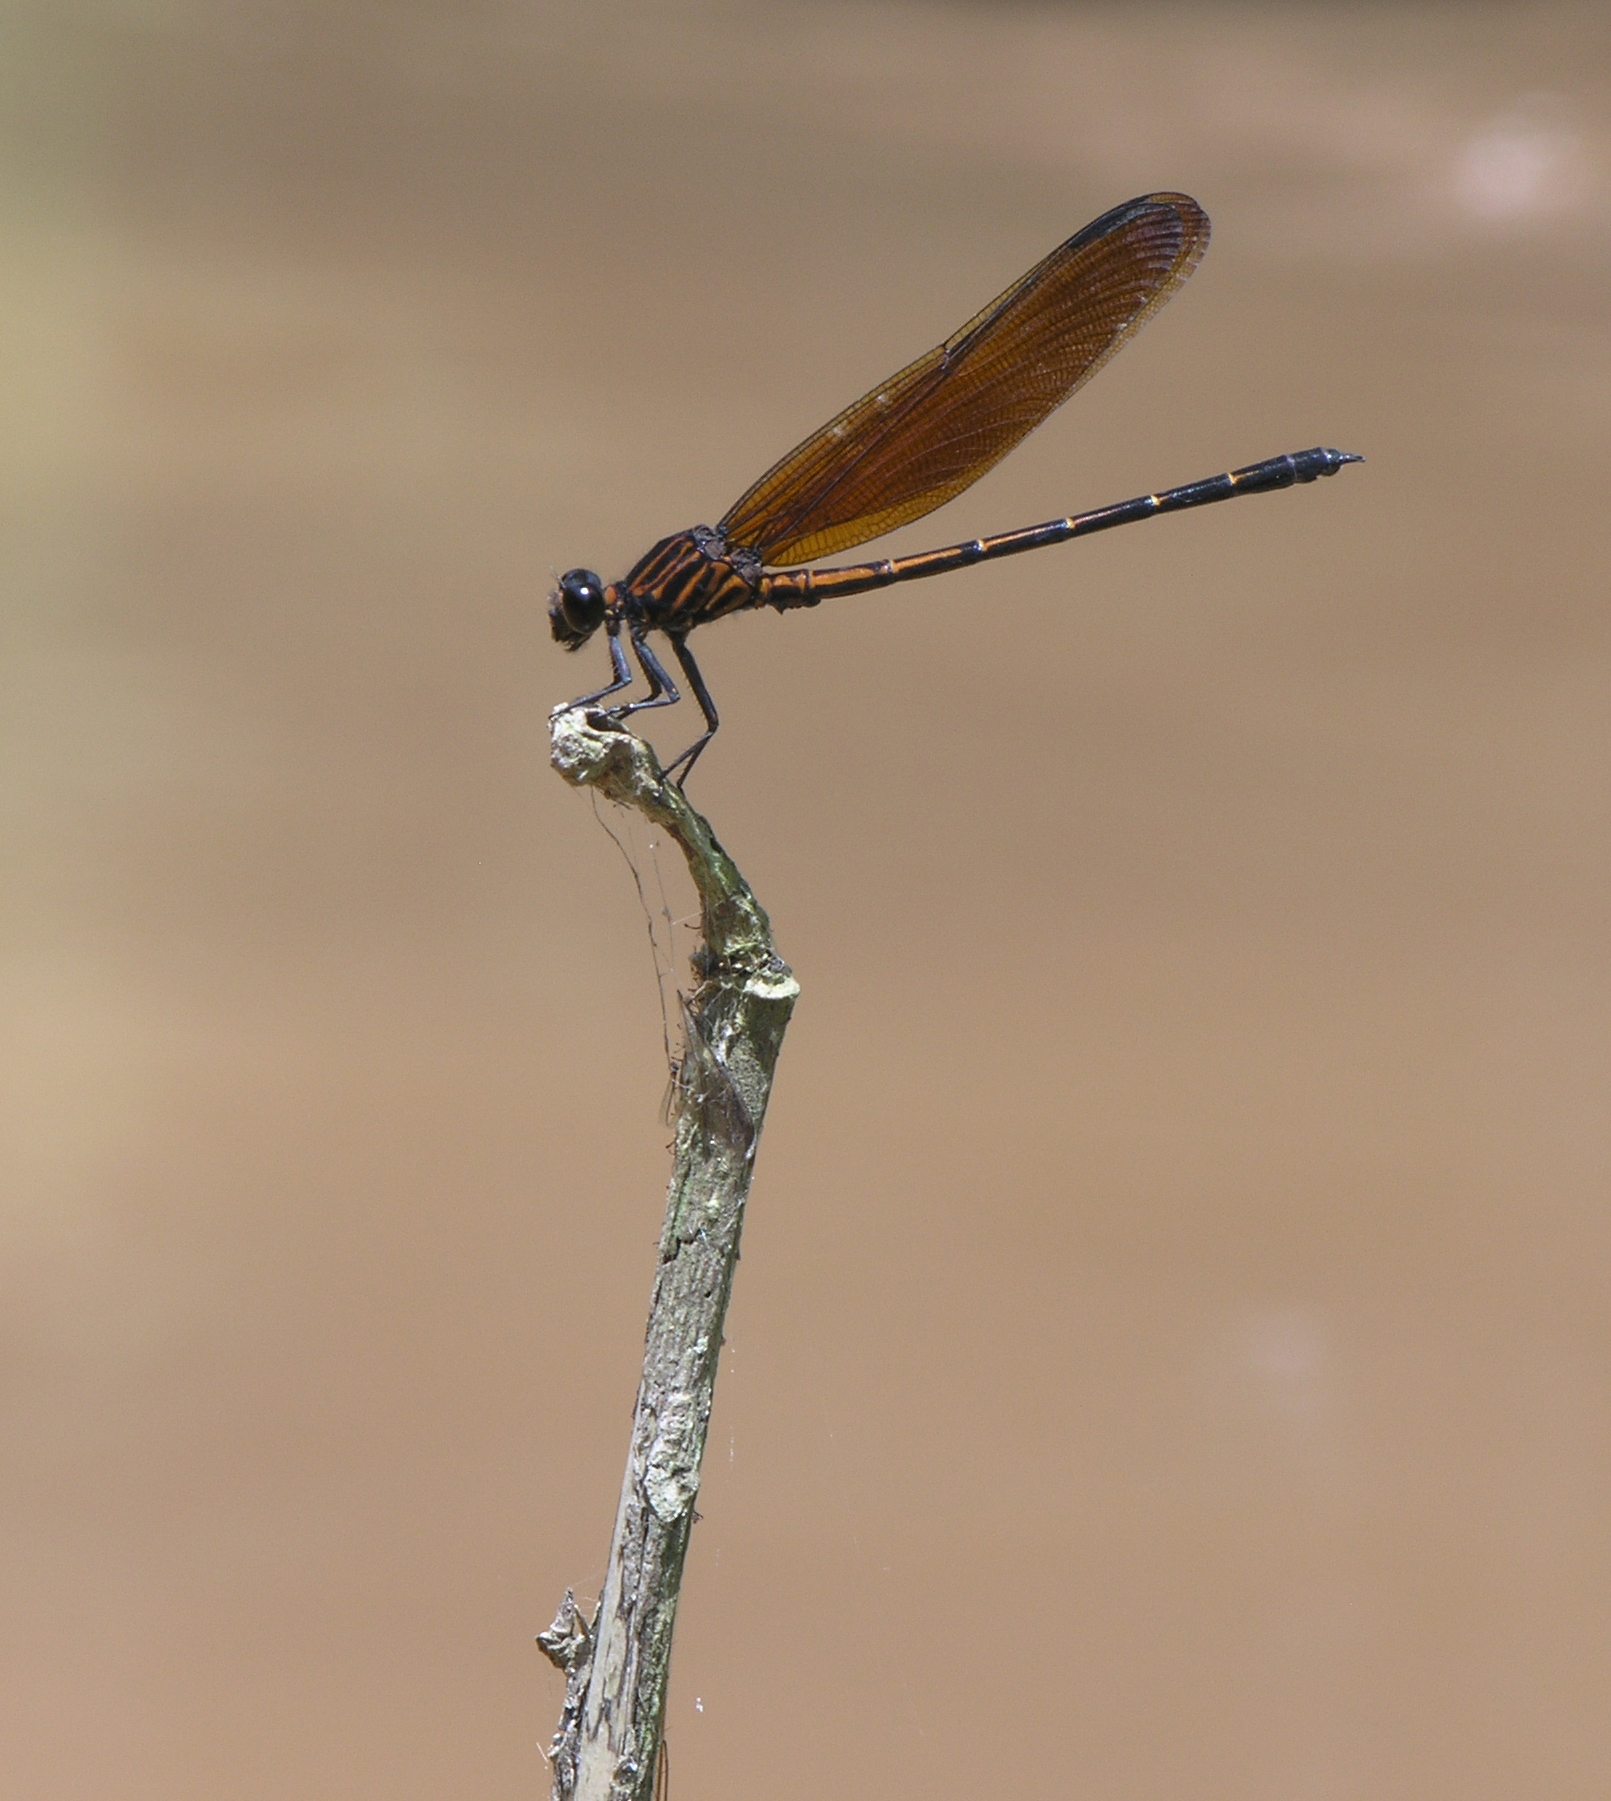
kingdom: Animalia
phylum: Arthropoda
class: Insecta
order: Odonata
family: Euphaeidae
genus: Dysphaea
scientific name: Dysphaea gloriosa
